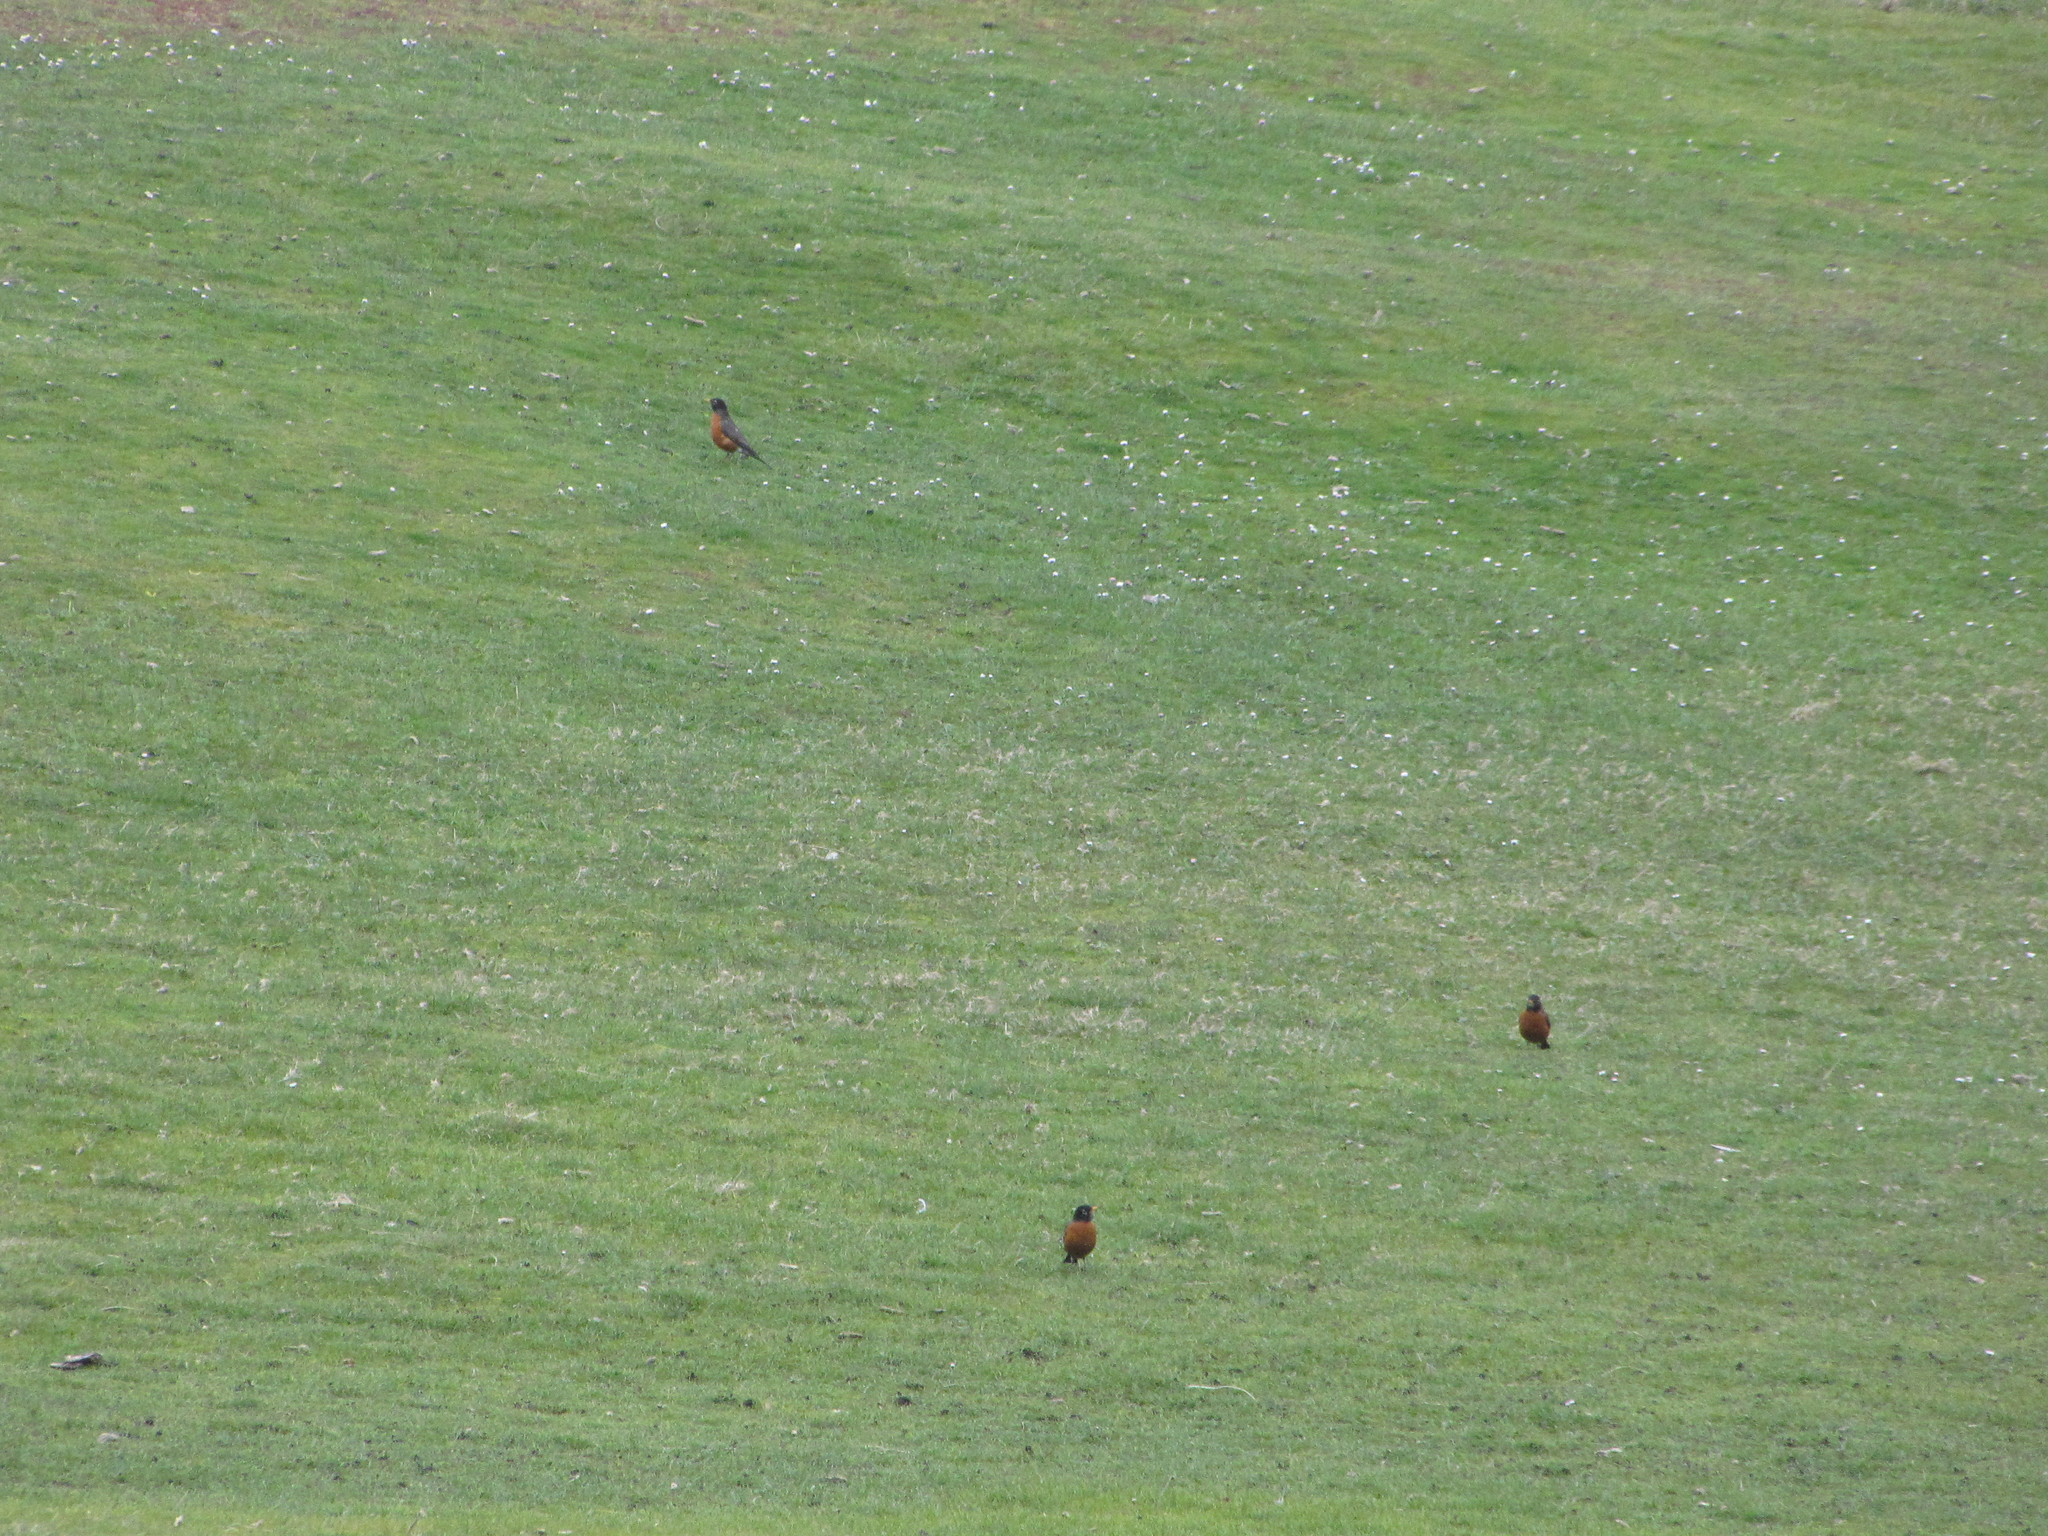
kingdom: Animalia
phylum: Chordata
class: Aves
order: Passeriformes
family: Turdidae
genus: Turdus
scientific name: Turdus migratorius
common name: American robin
